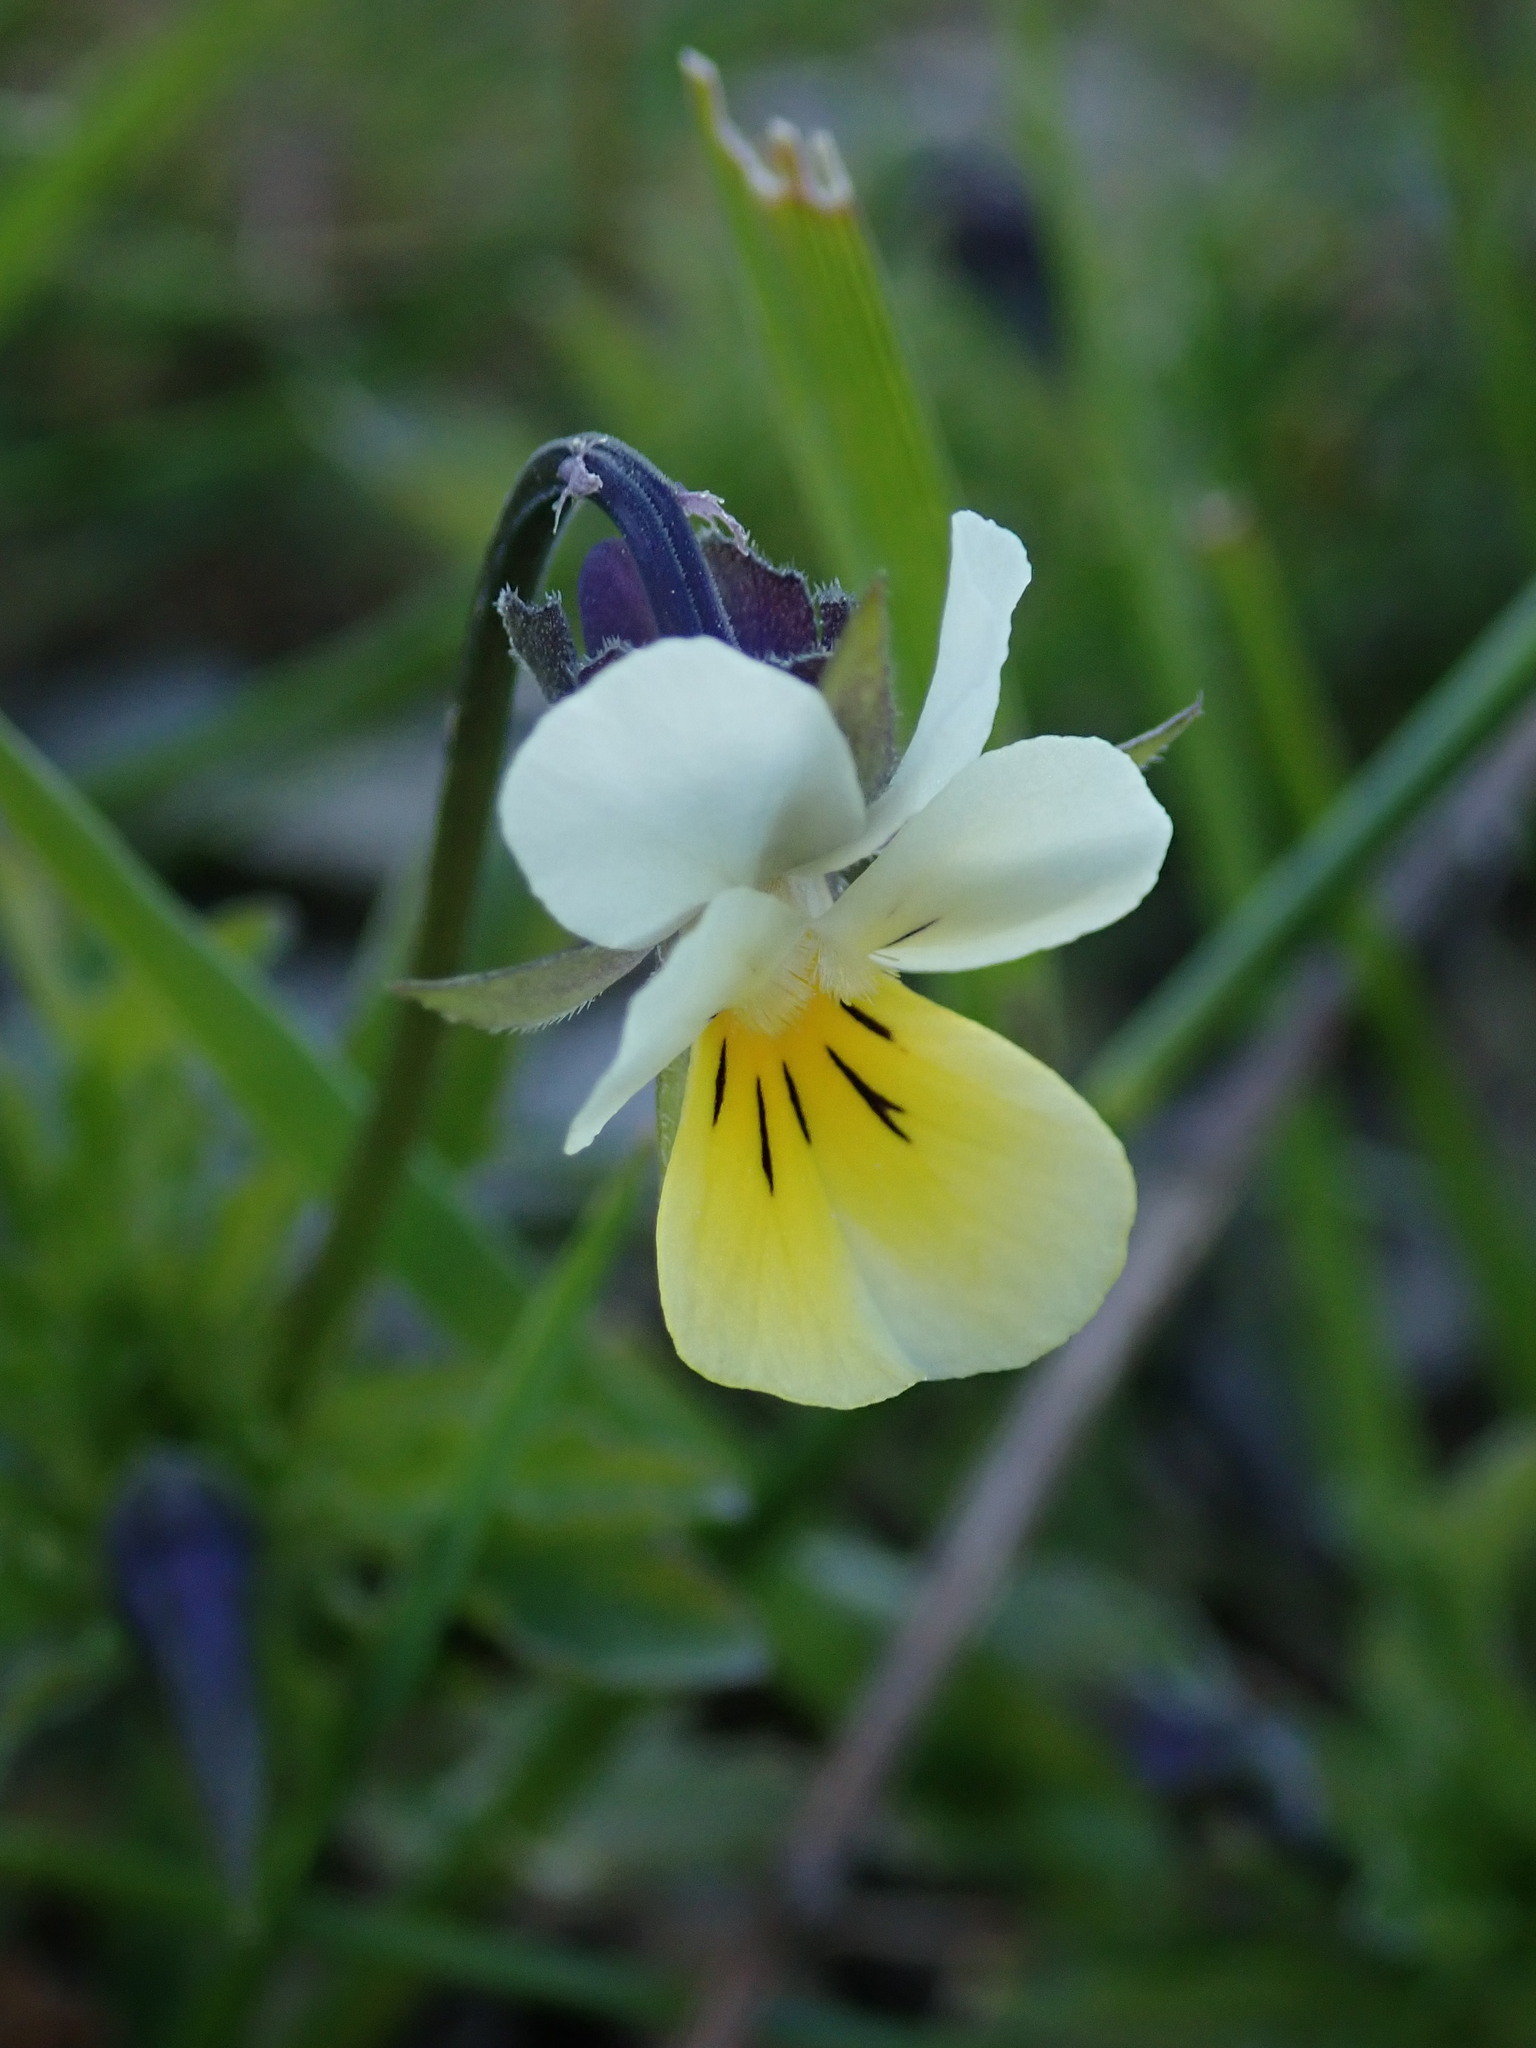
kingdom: Plantae
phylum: Tracheophyta
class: Magnoliopsida
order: Malpighiales
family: Violaceae
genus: Viola
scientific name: Viola arvensis
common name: Field pansy
